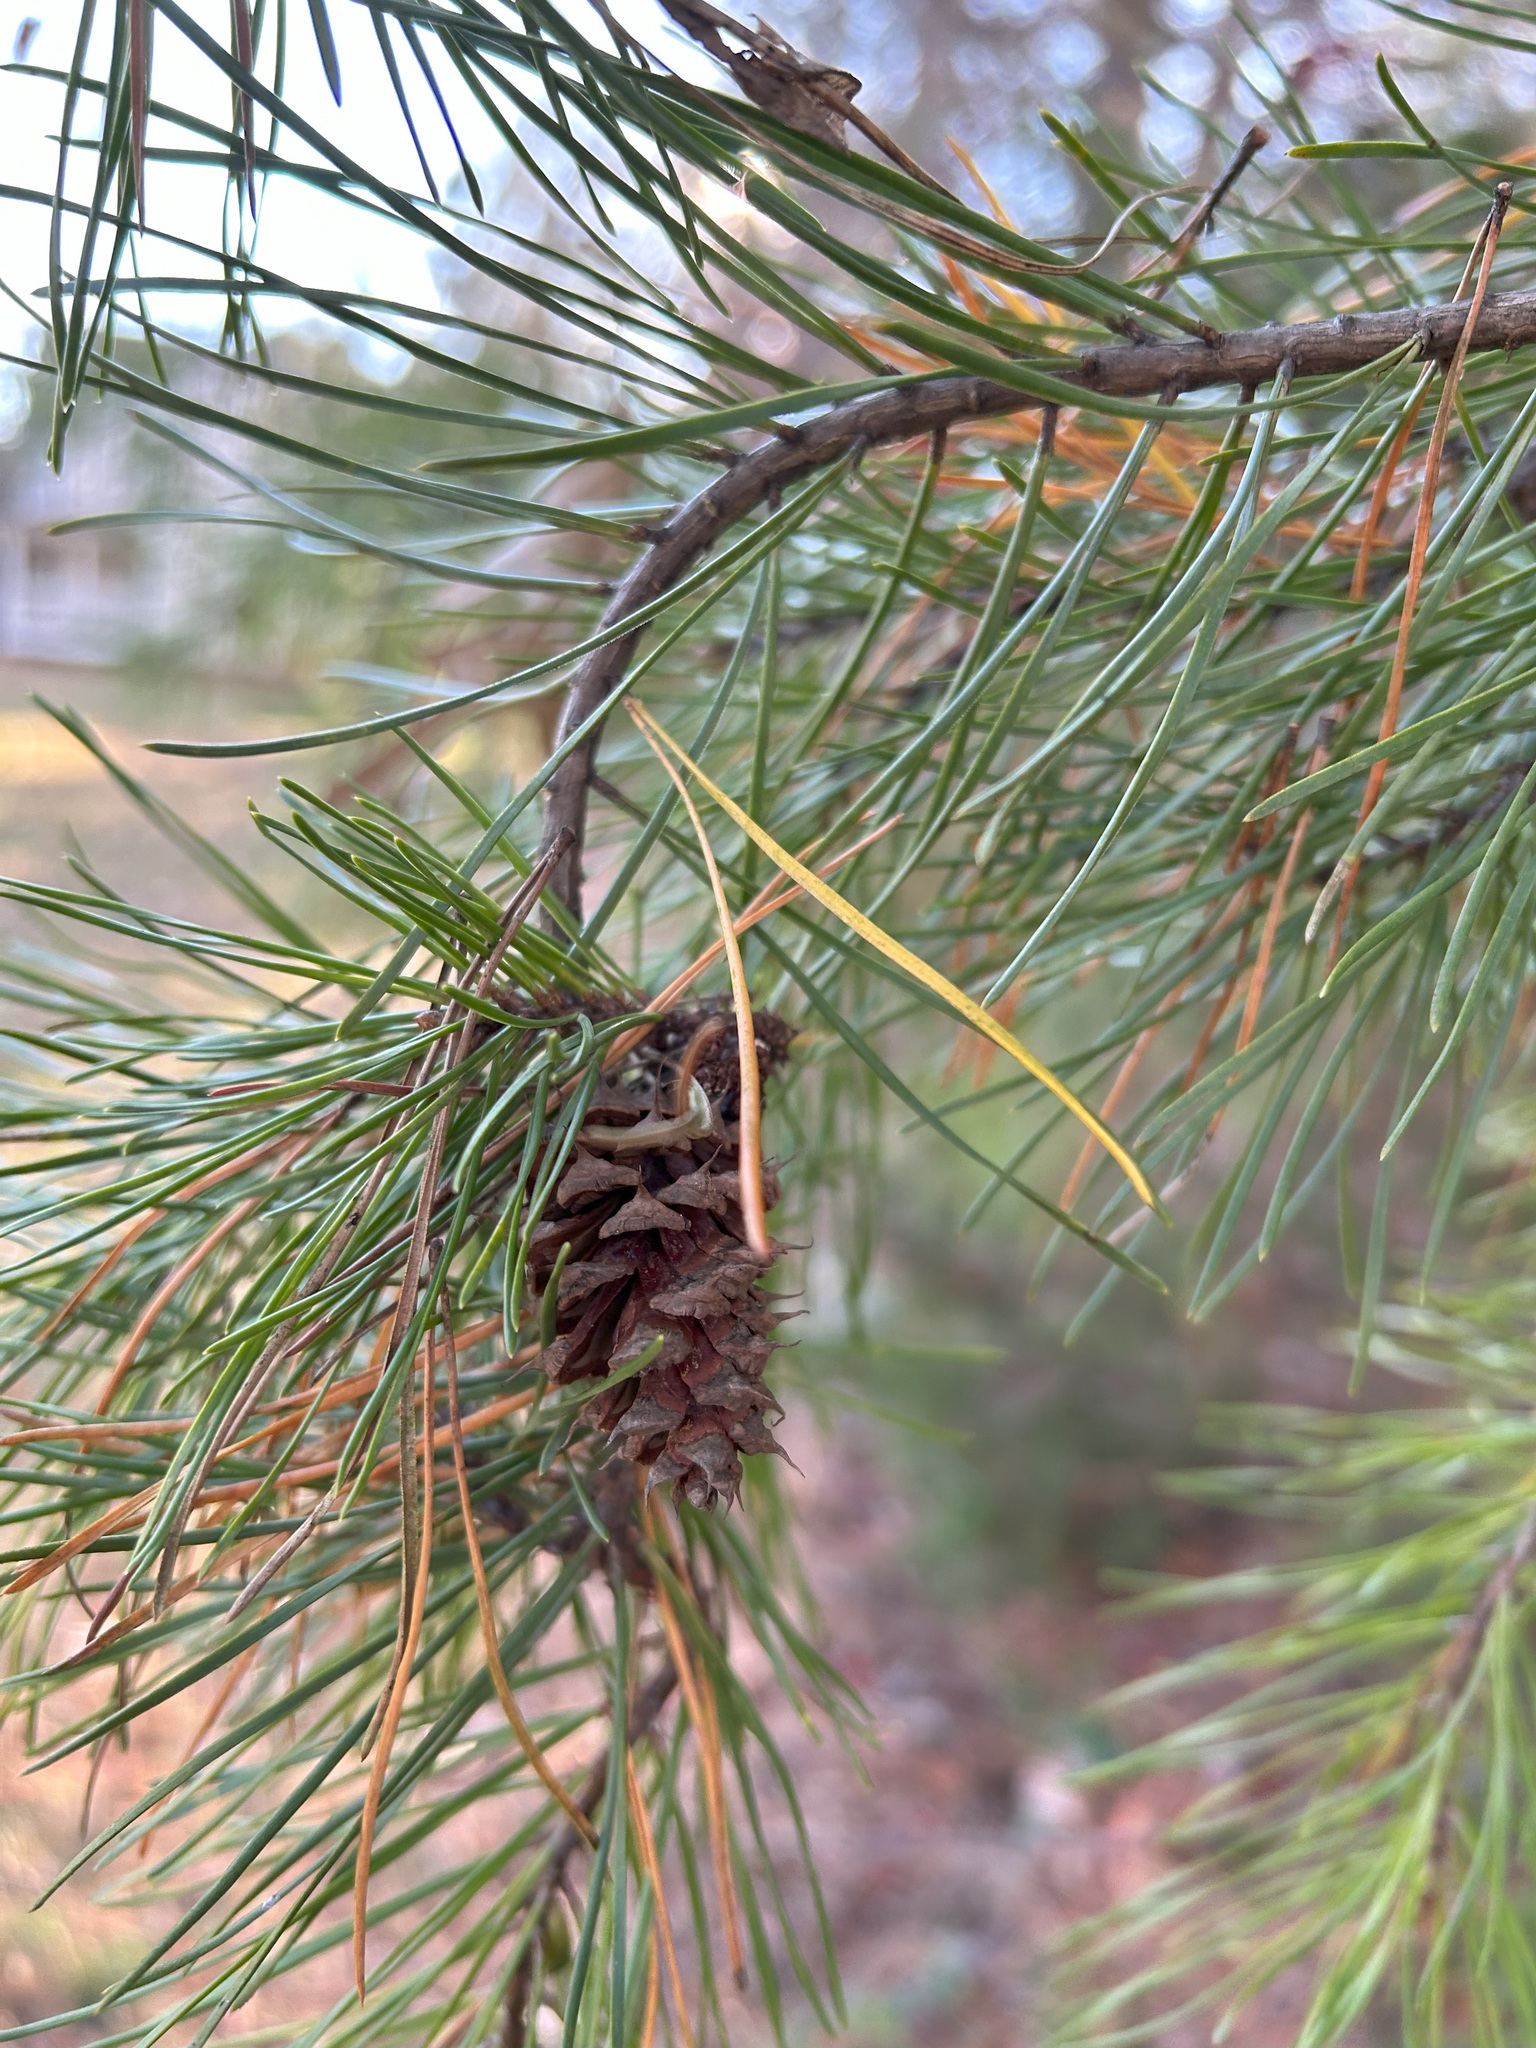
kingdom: Plantae
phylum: Tracheophyta
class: Pinopsida
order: Pinales
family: Pinaceae
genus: Pinus
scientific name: Pinus virginiana
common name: Scrub pine
